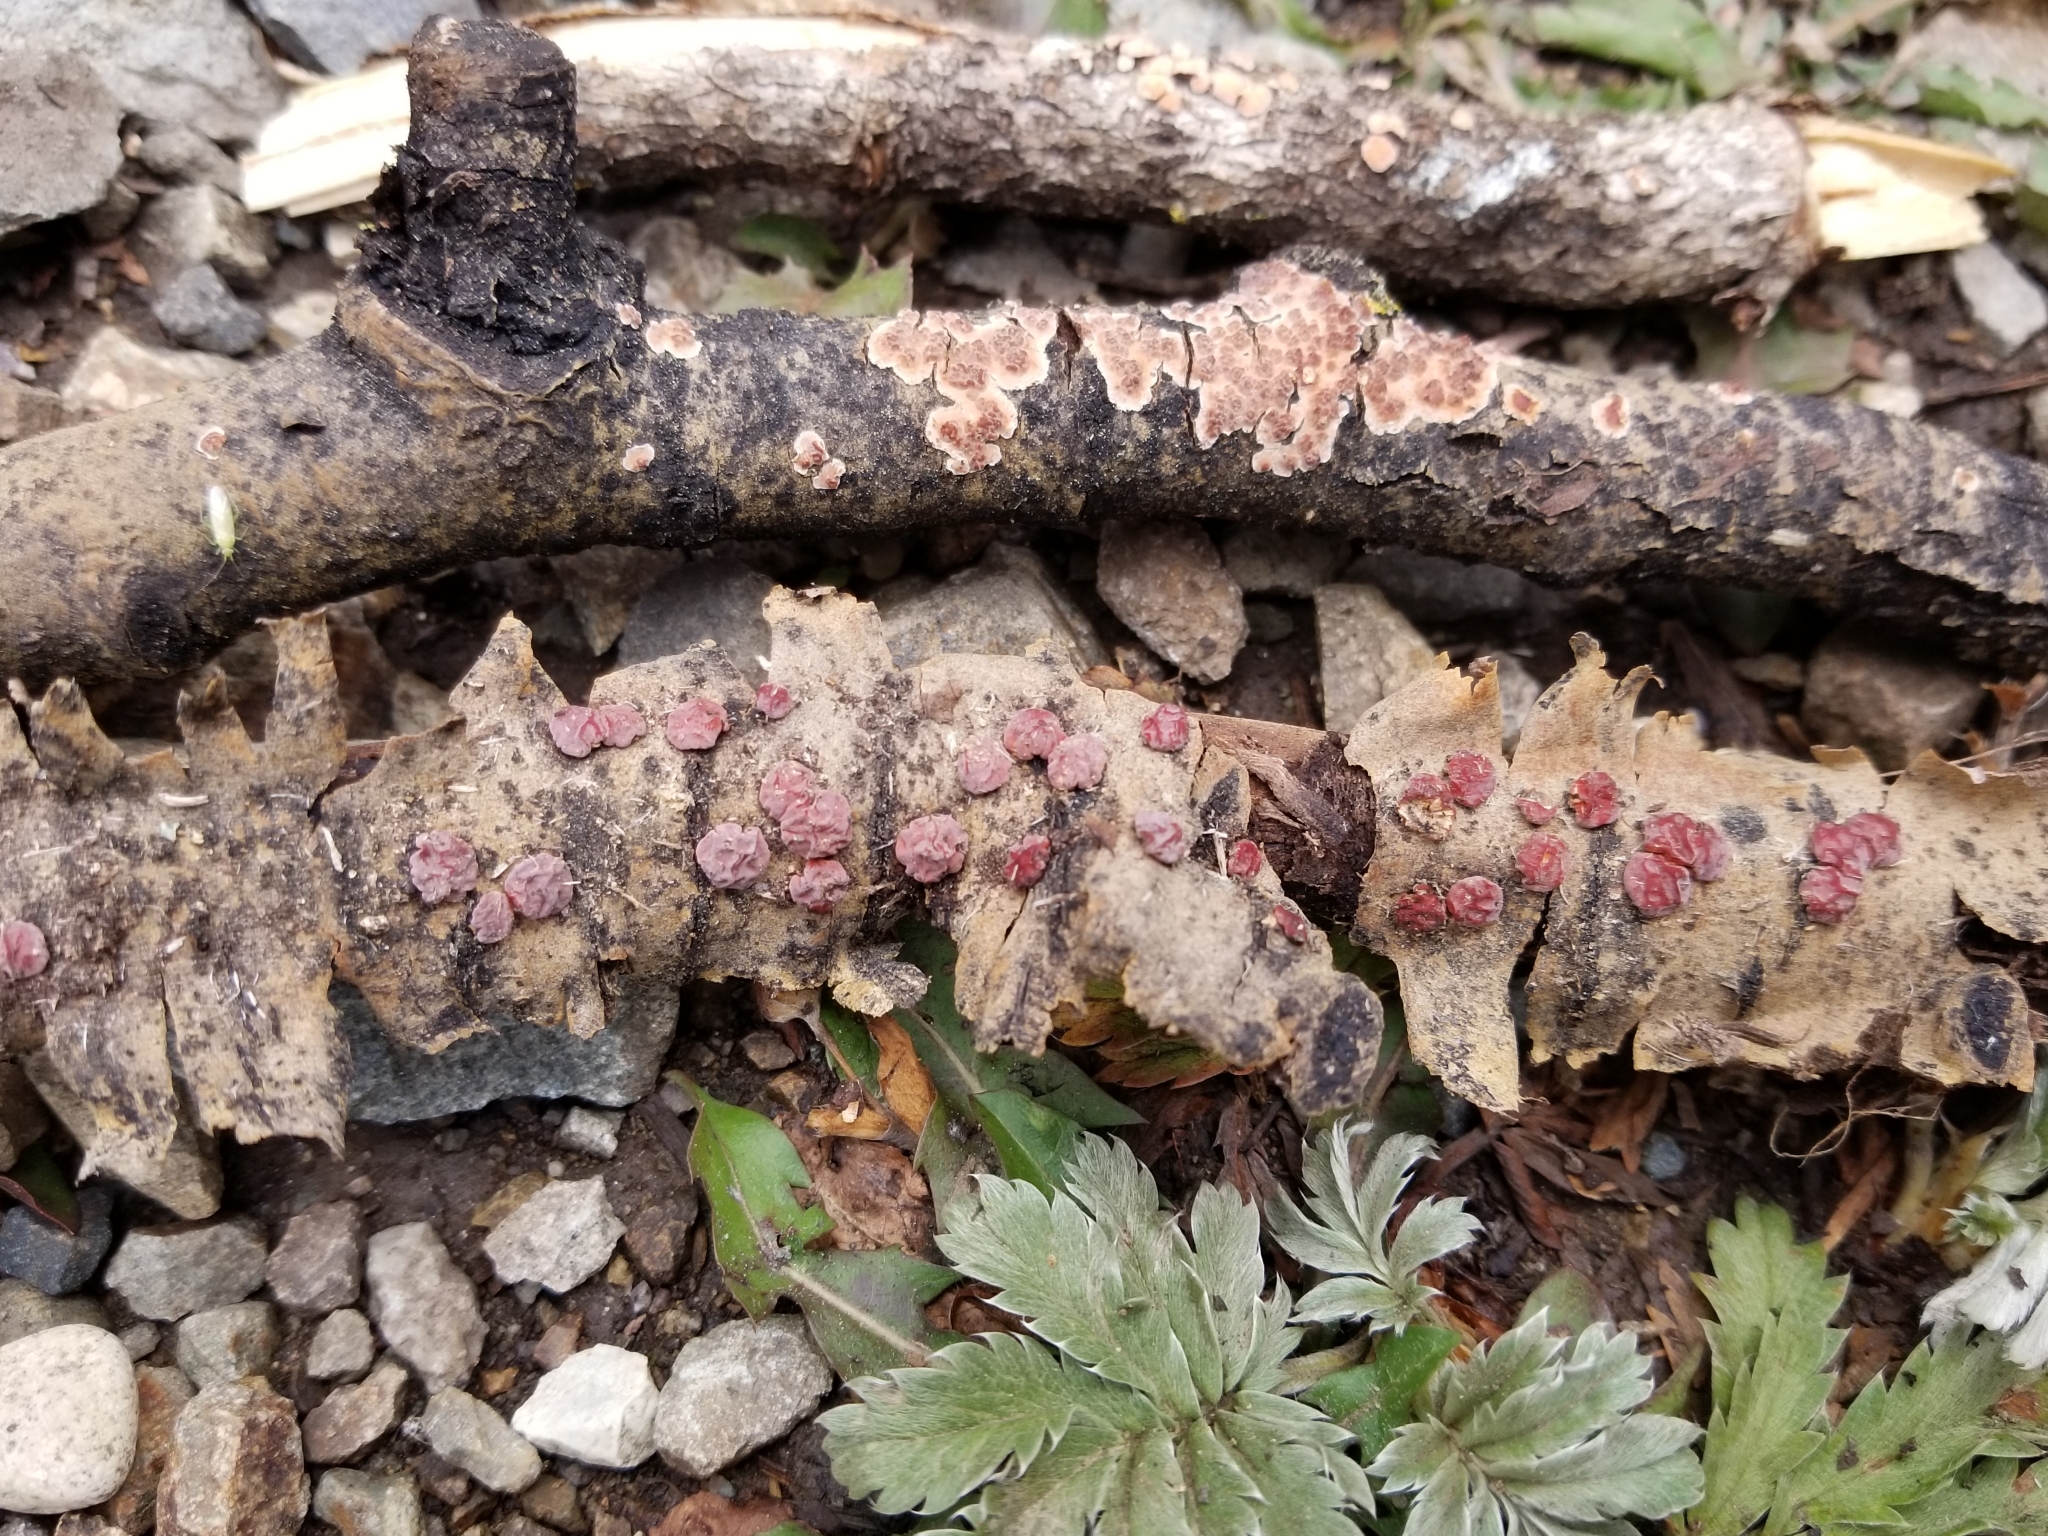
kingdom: Fungi
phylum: Basidiomycota
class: Agaricomycetes
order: Russulales
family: Peniophoraceae
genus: Peniophora
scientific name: Peniophora rufa
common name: Red tree brain fungus
